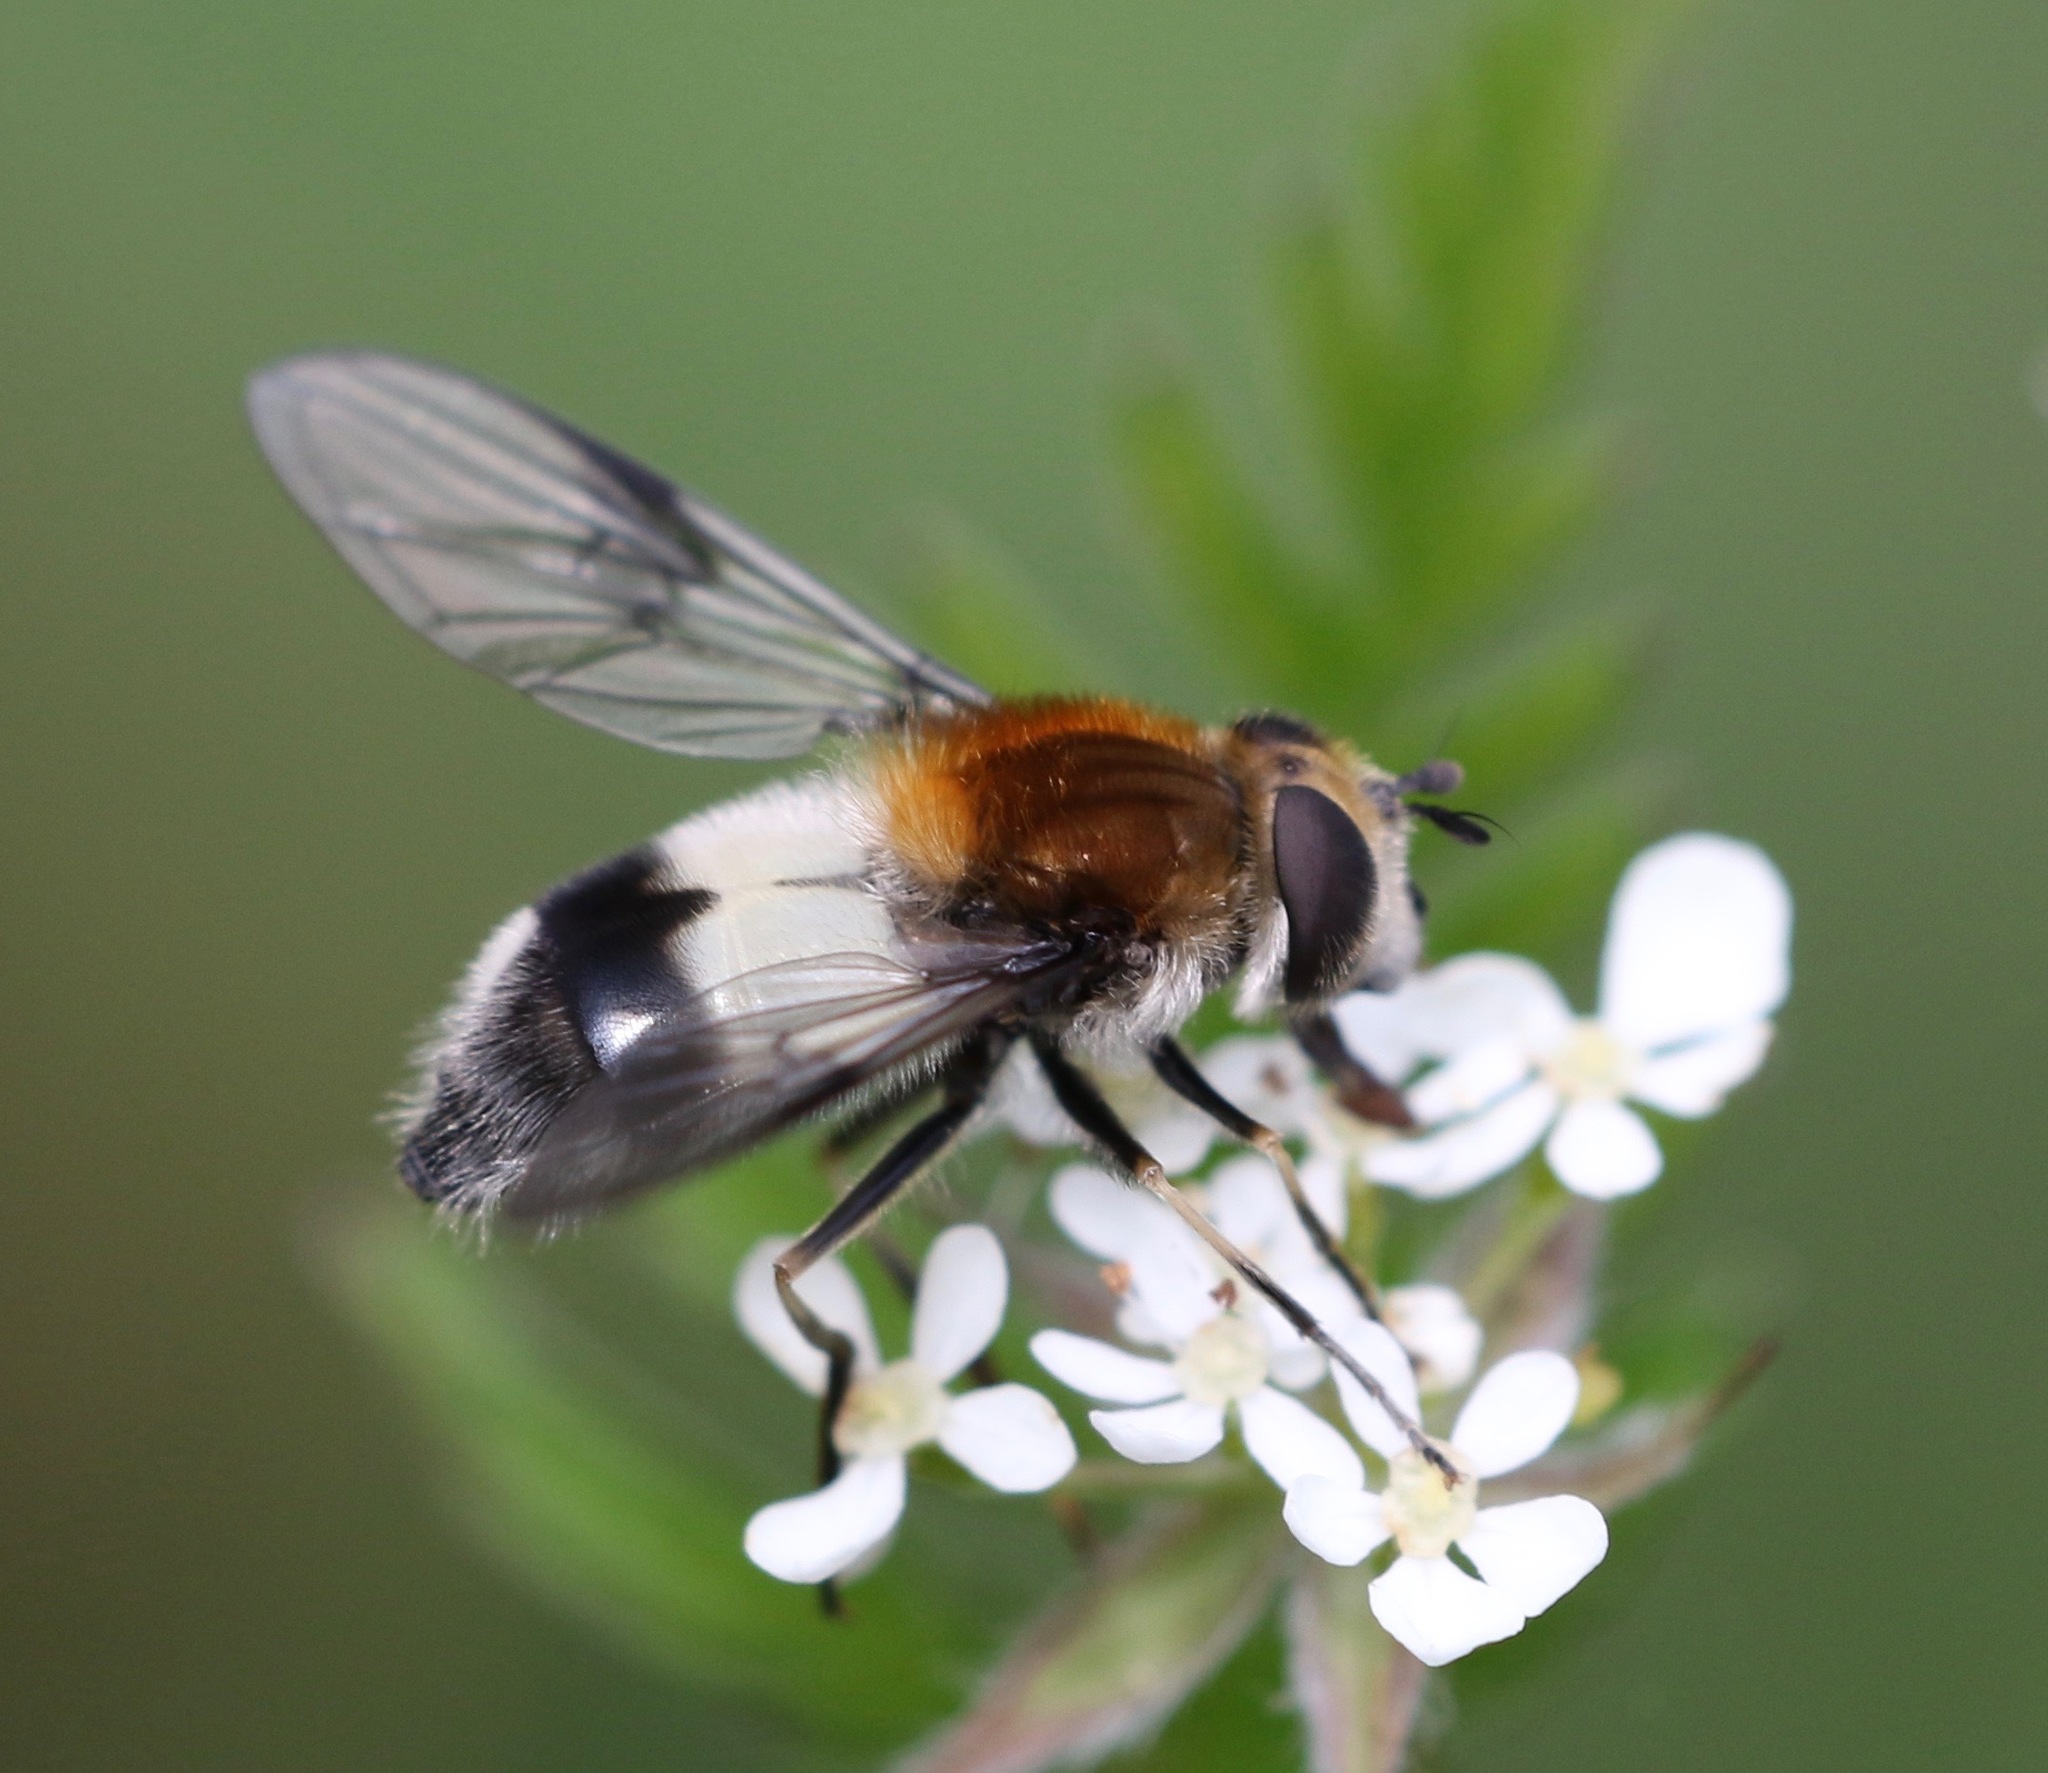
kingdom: Animalia
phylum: Arthropoda
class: Insecta
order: Diptera
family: Syrphidae
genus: Leucozona
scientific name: Leucozona lucorum
